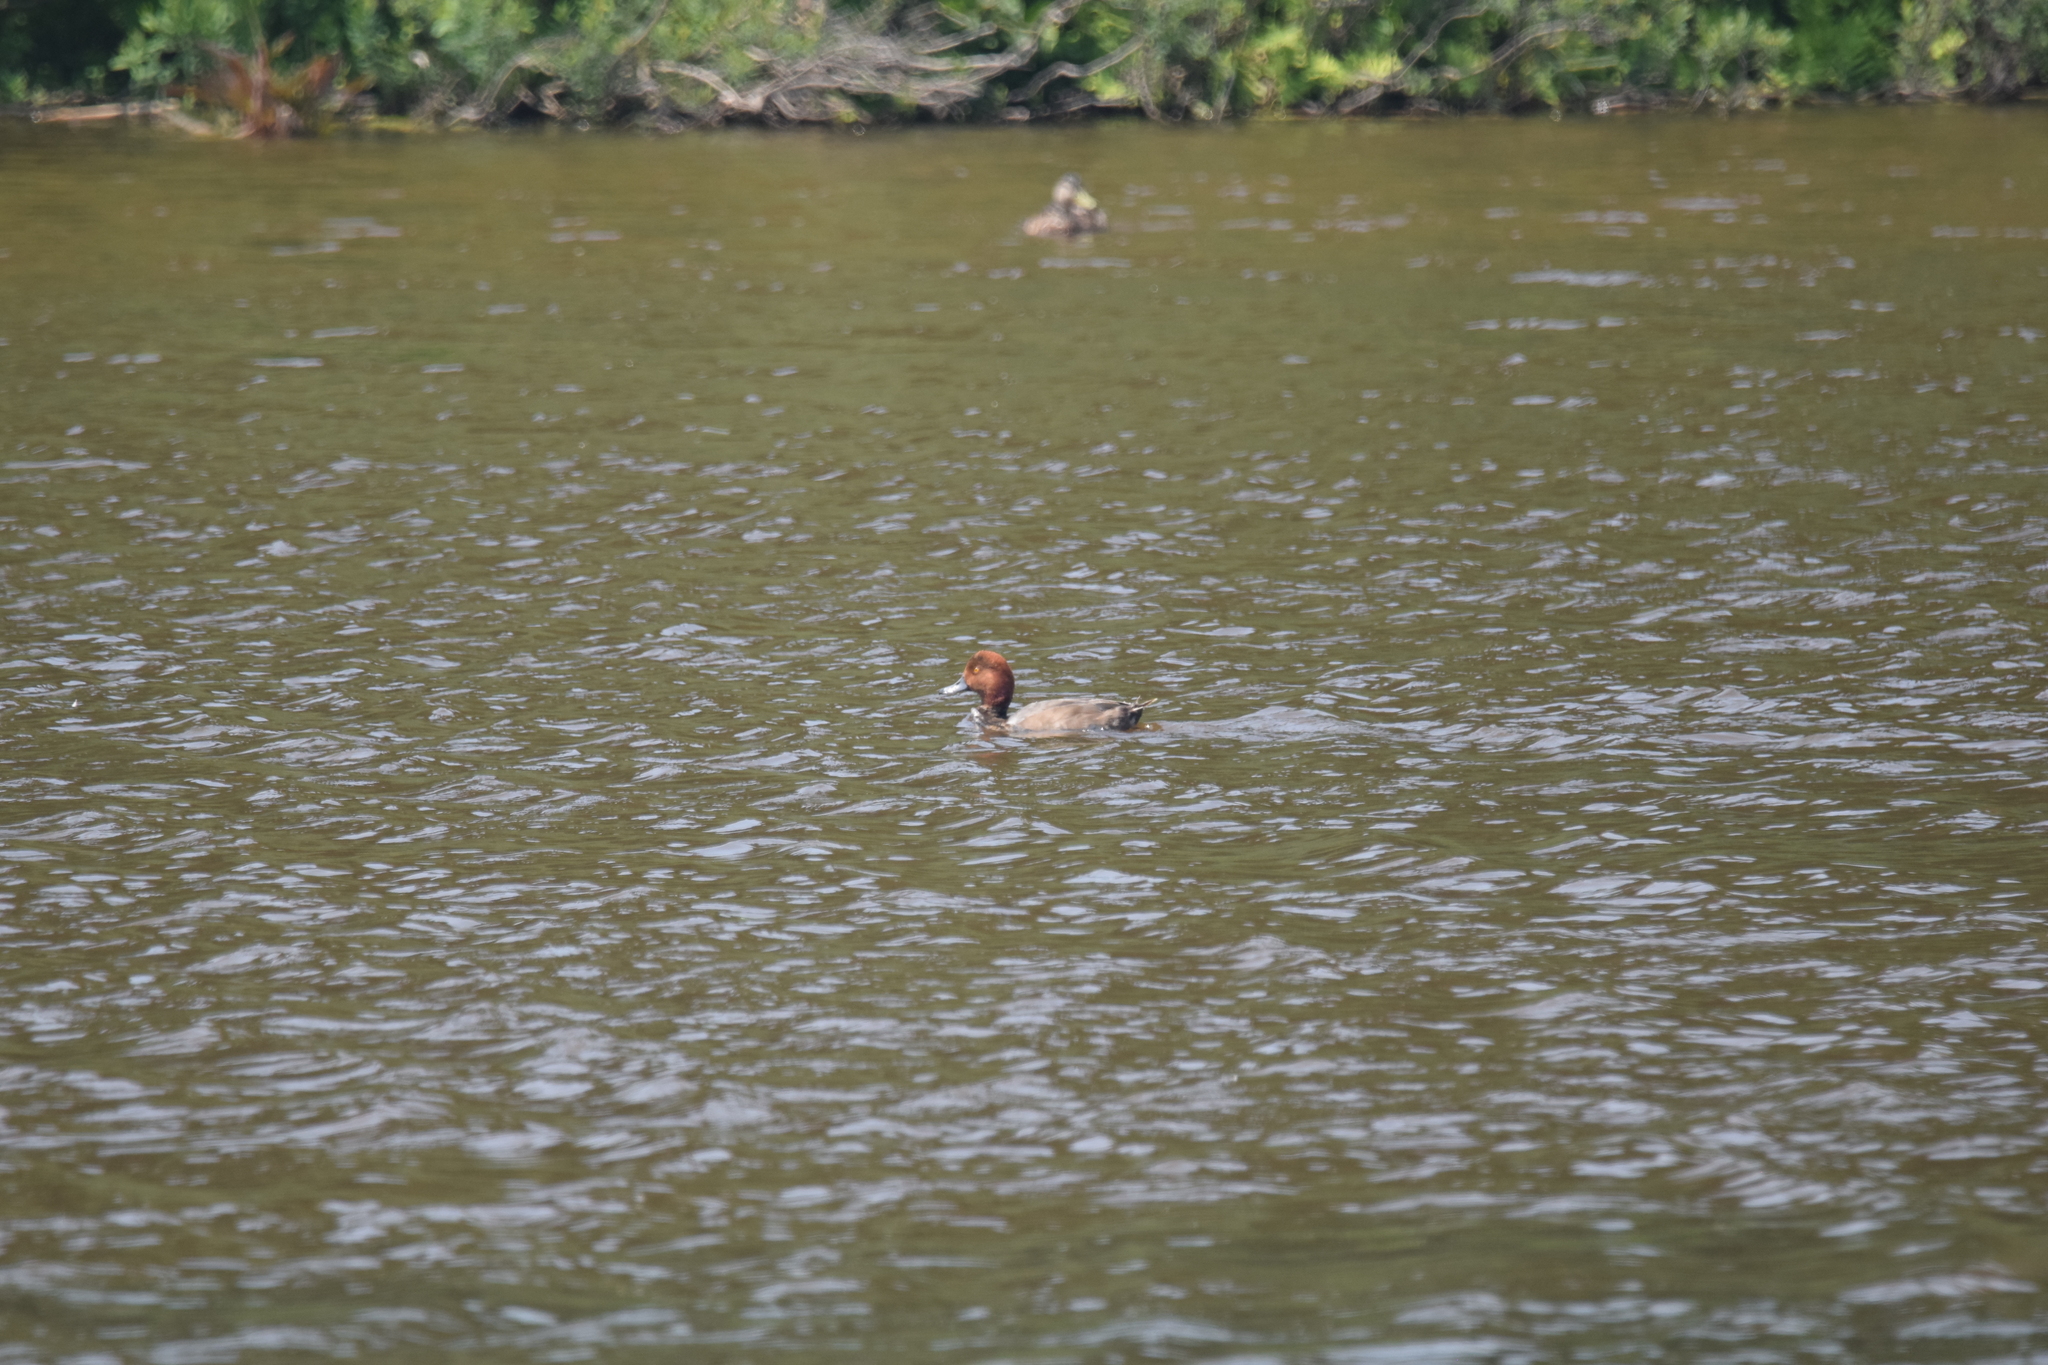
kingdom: Animalia
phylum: Chordata
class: Aves
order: Anseriformes
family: Anatidae
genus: Aythya
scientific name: Aythya americana
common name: Redhead
